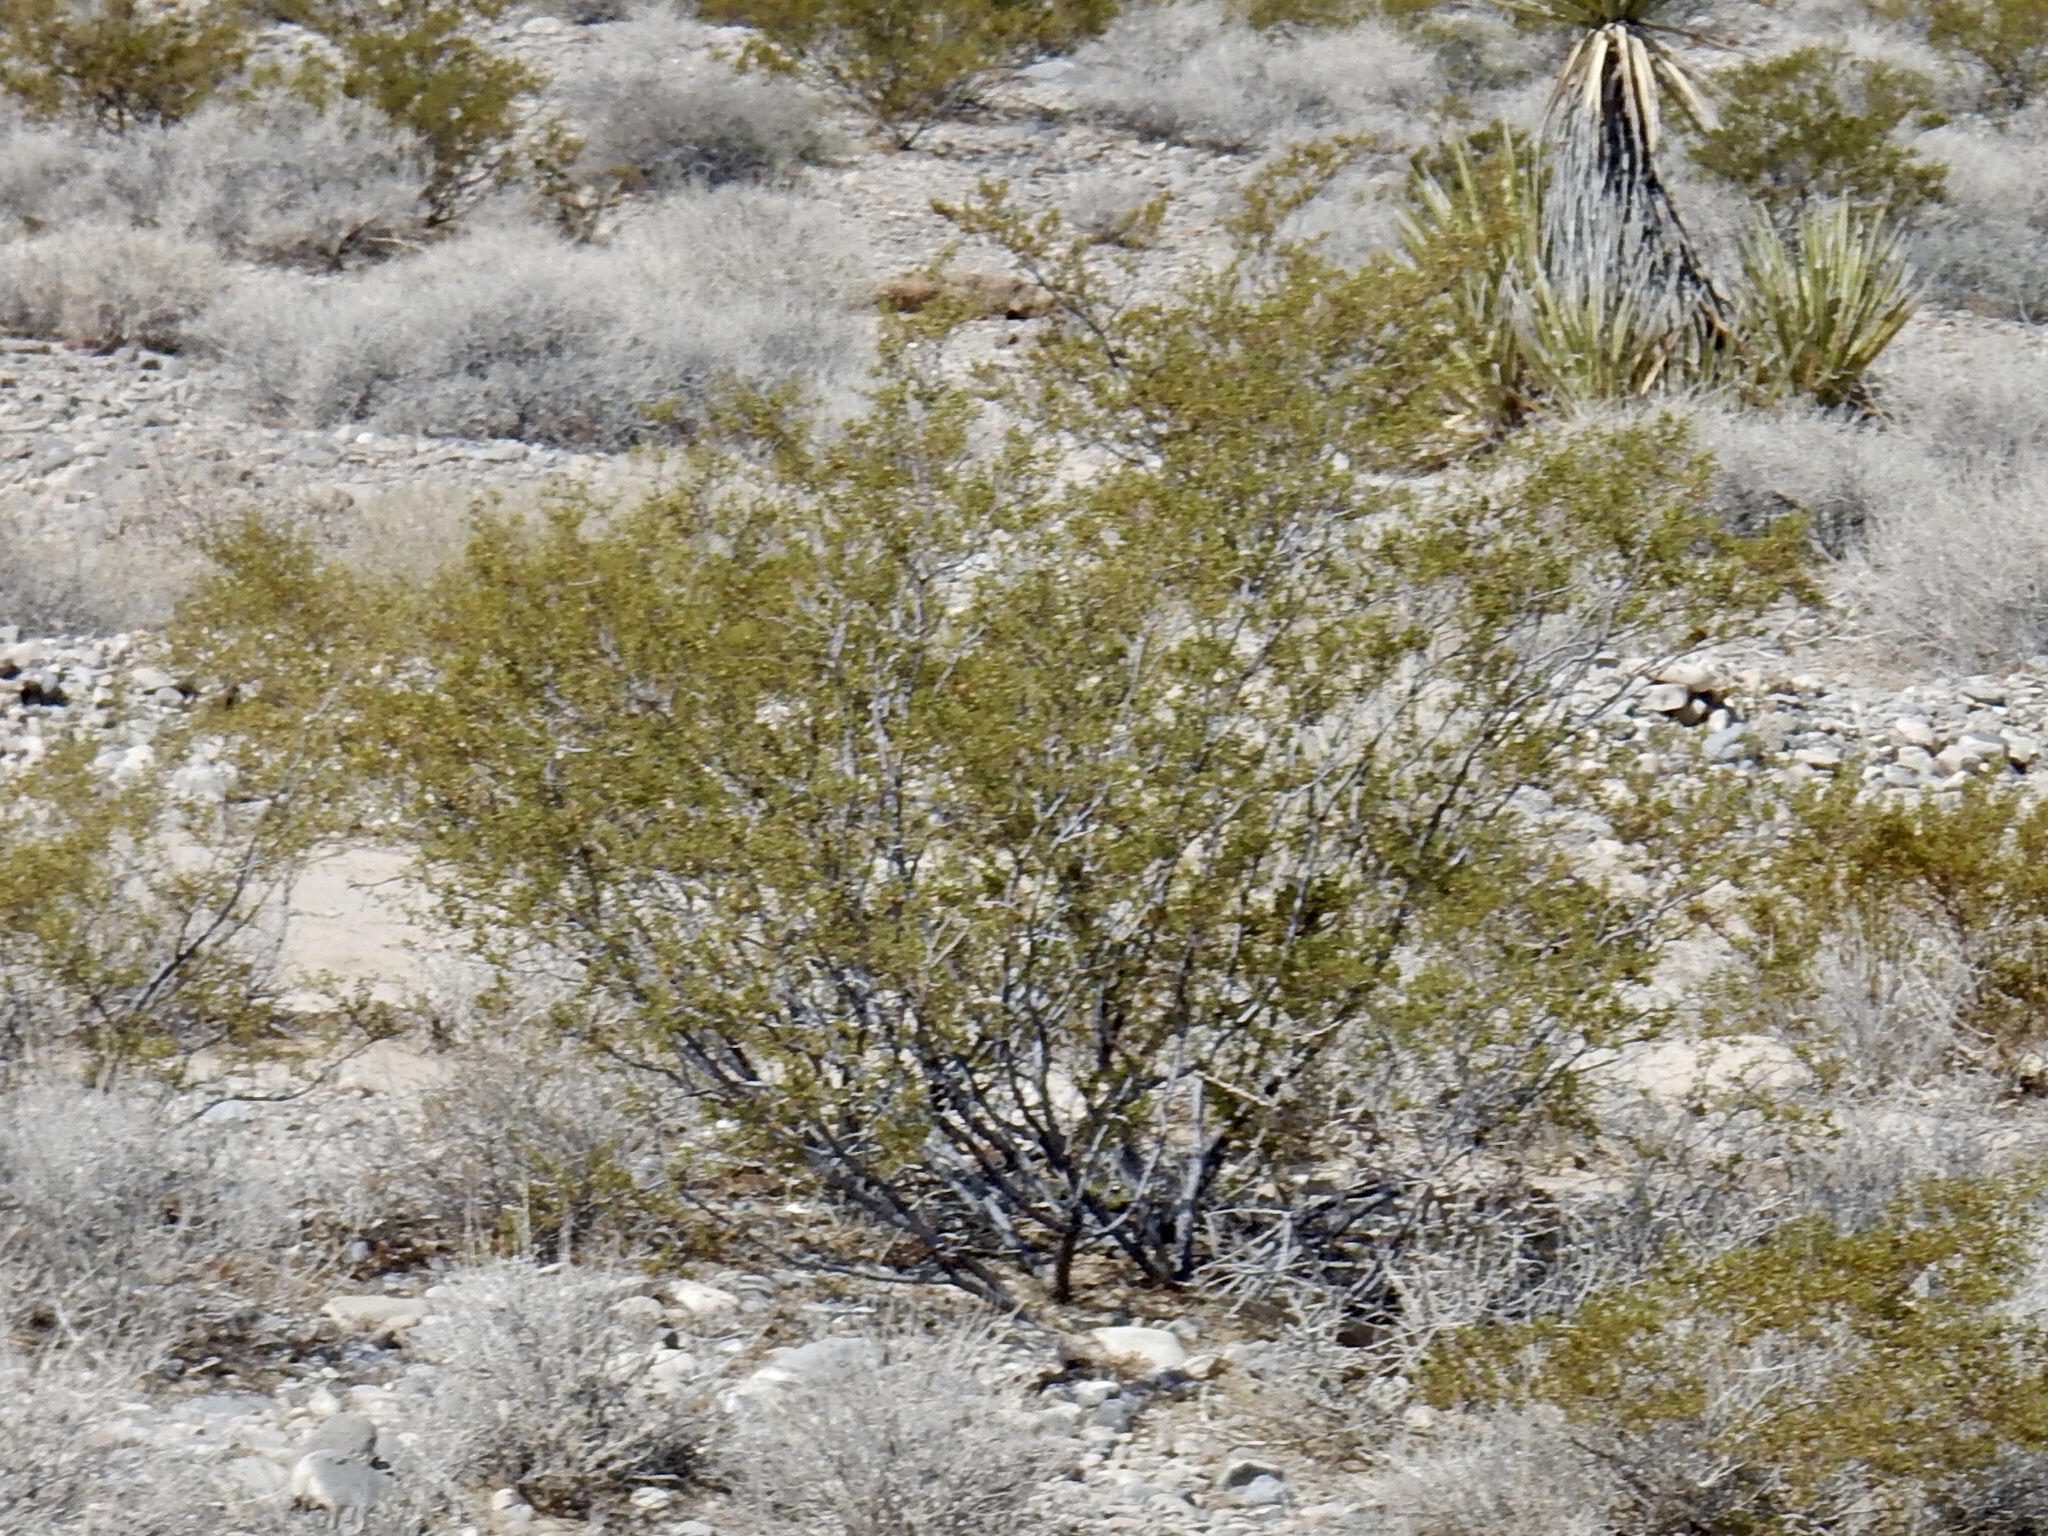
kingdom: Plantae
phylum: Tracheophyta
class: Magnoliopsida
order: Zygophyllales
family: Zygophyllaceae
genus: Larrea
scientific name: Larrea tridentata
